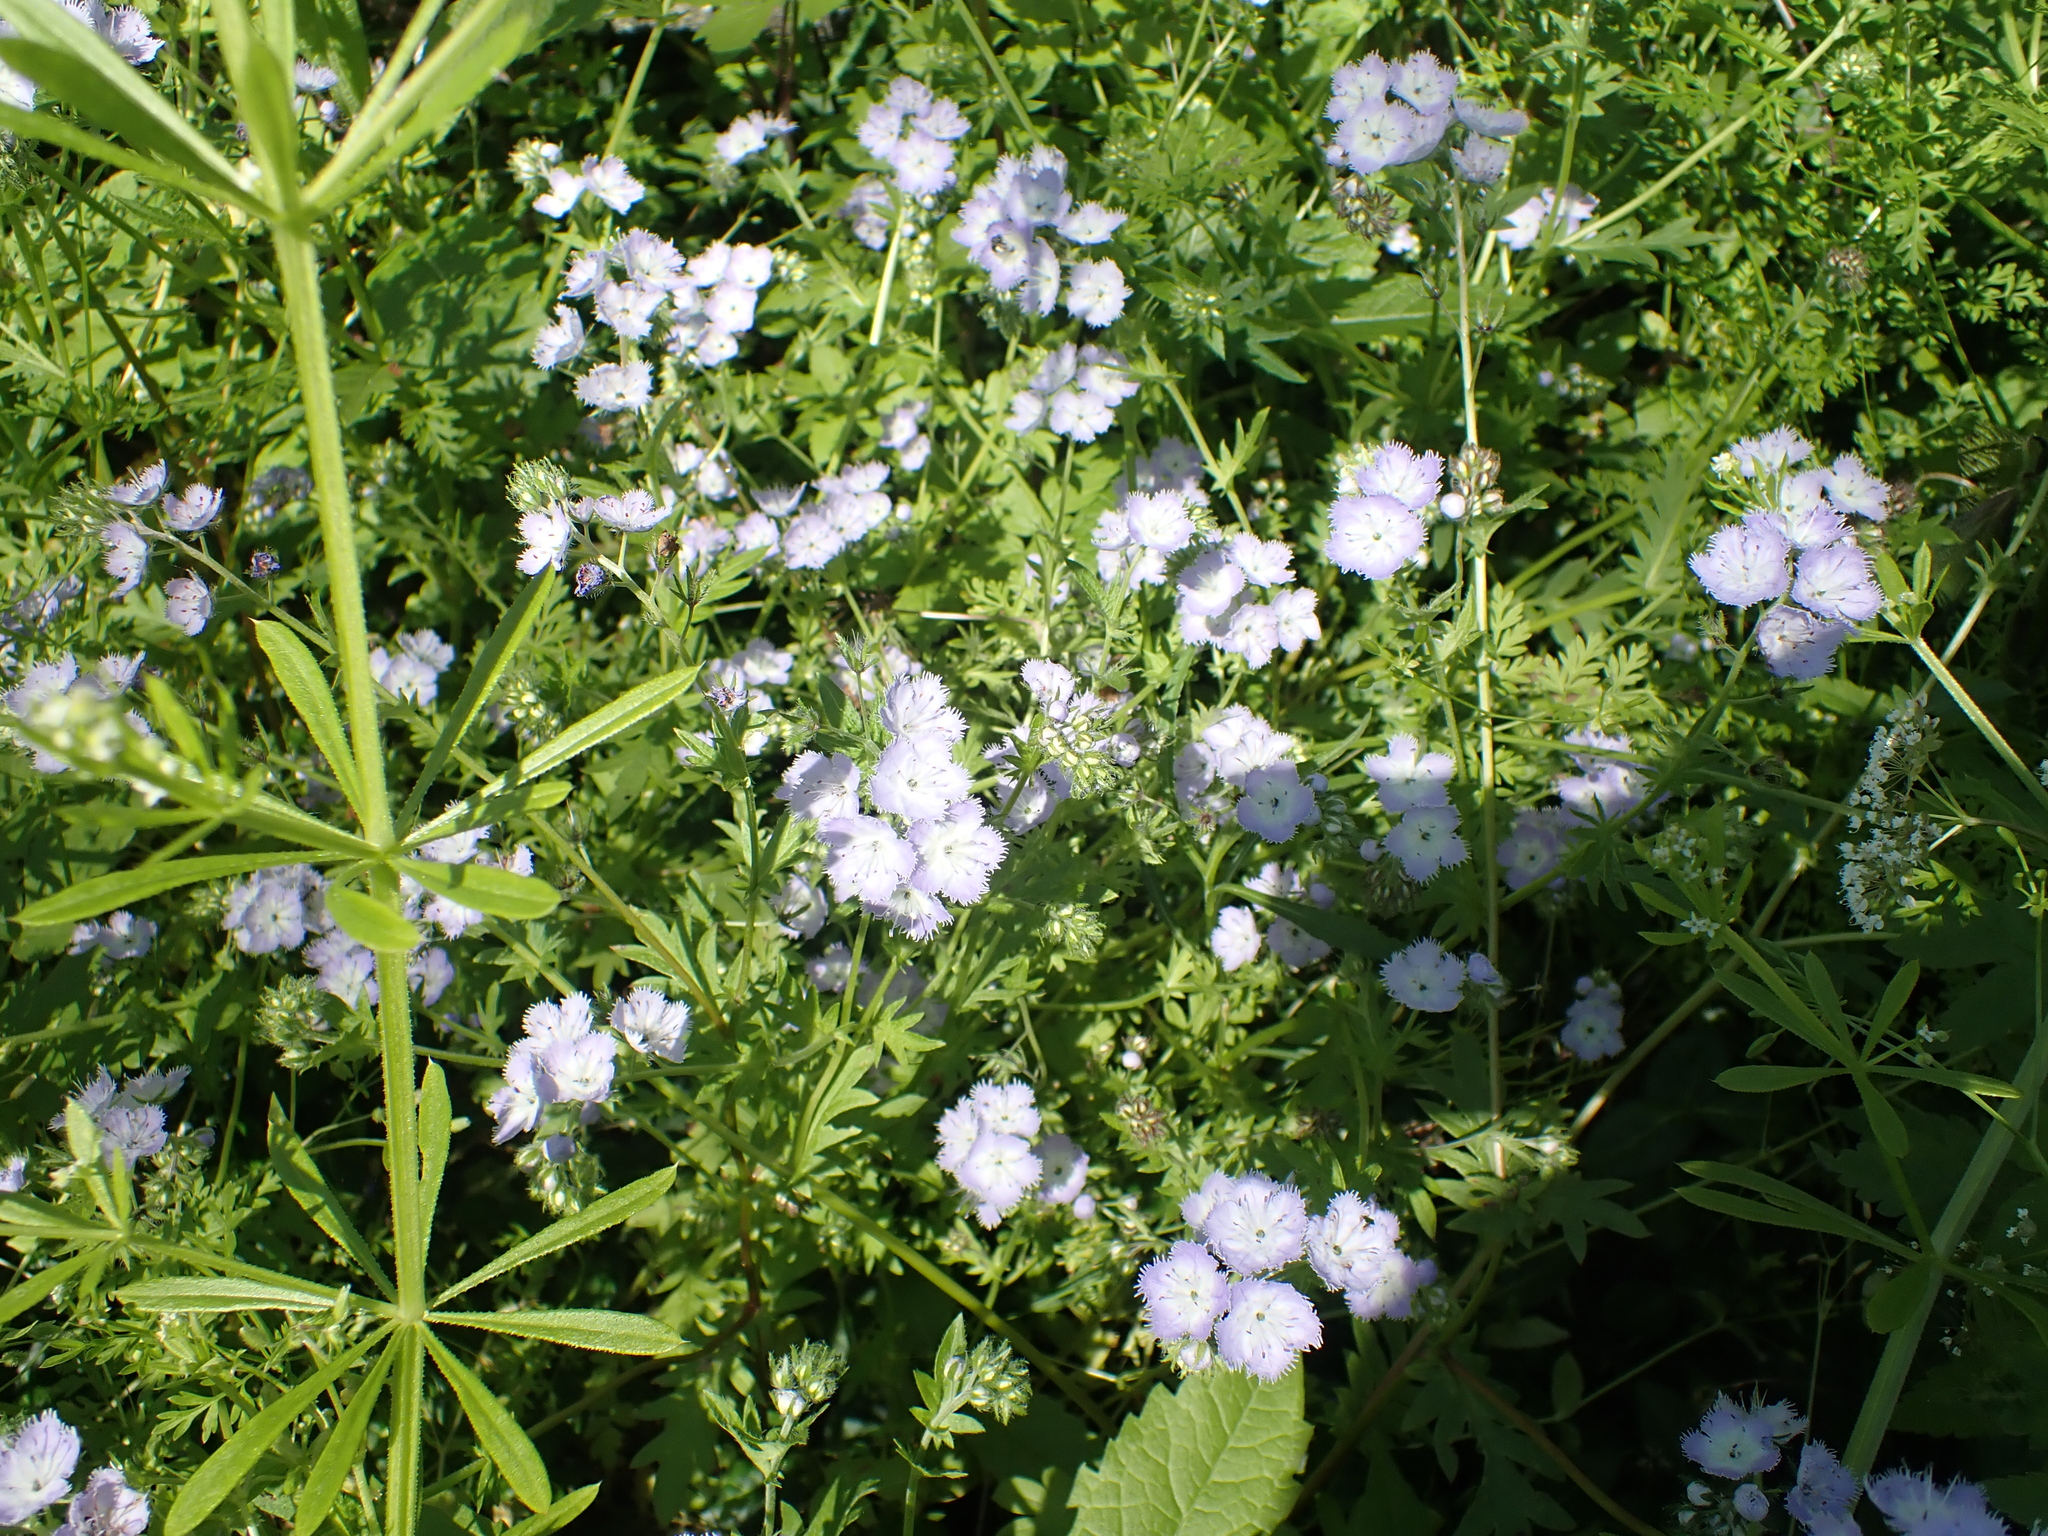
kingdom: Plantae
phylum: Tracheophyta
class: Magnoliopsida
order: Boraginales
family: Hydrophyllaceae
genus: Phacelia
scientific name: Phacelia purshii
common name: Miami-mist
